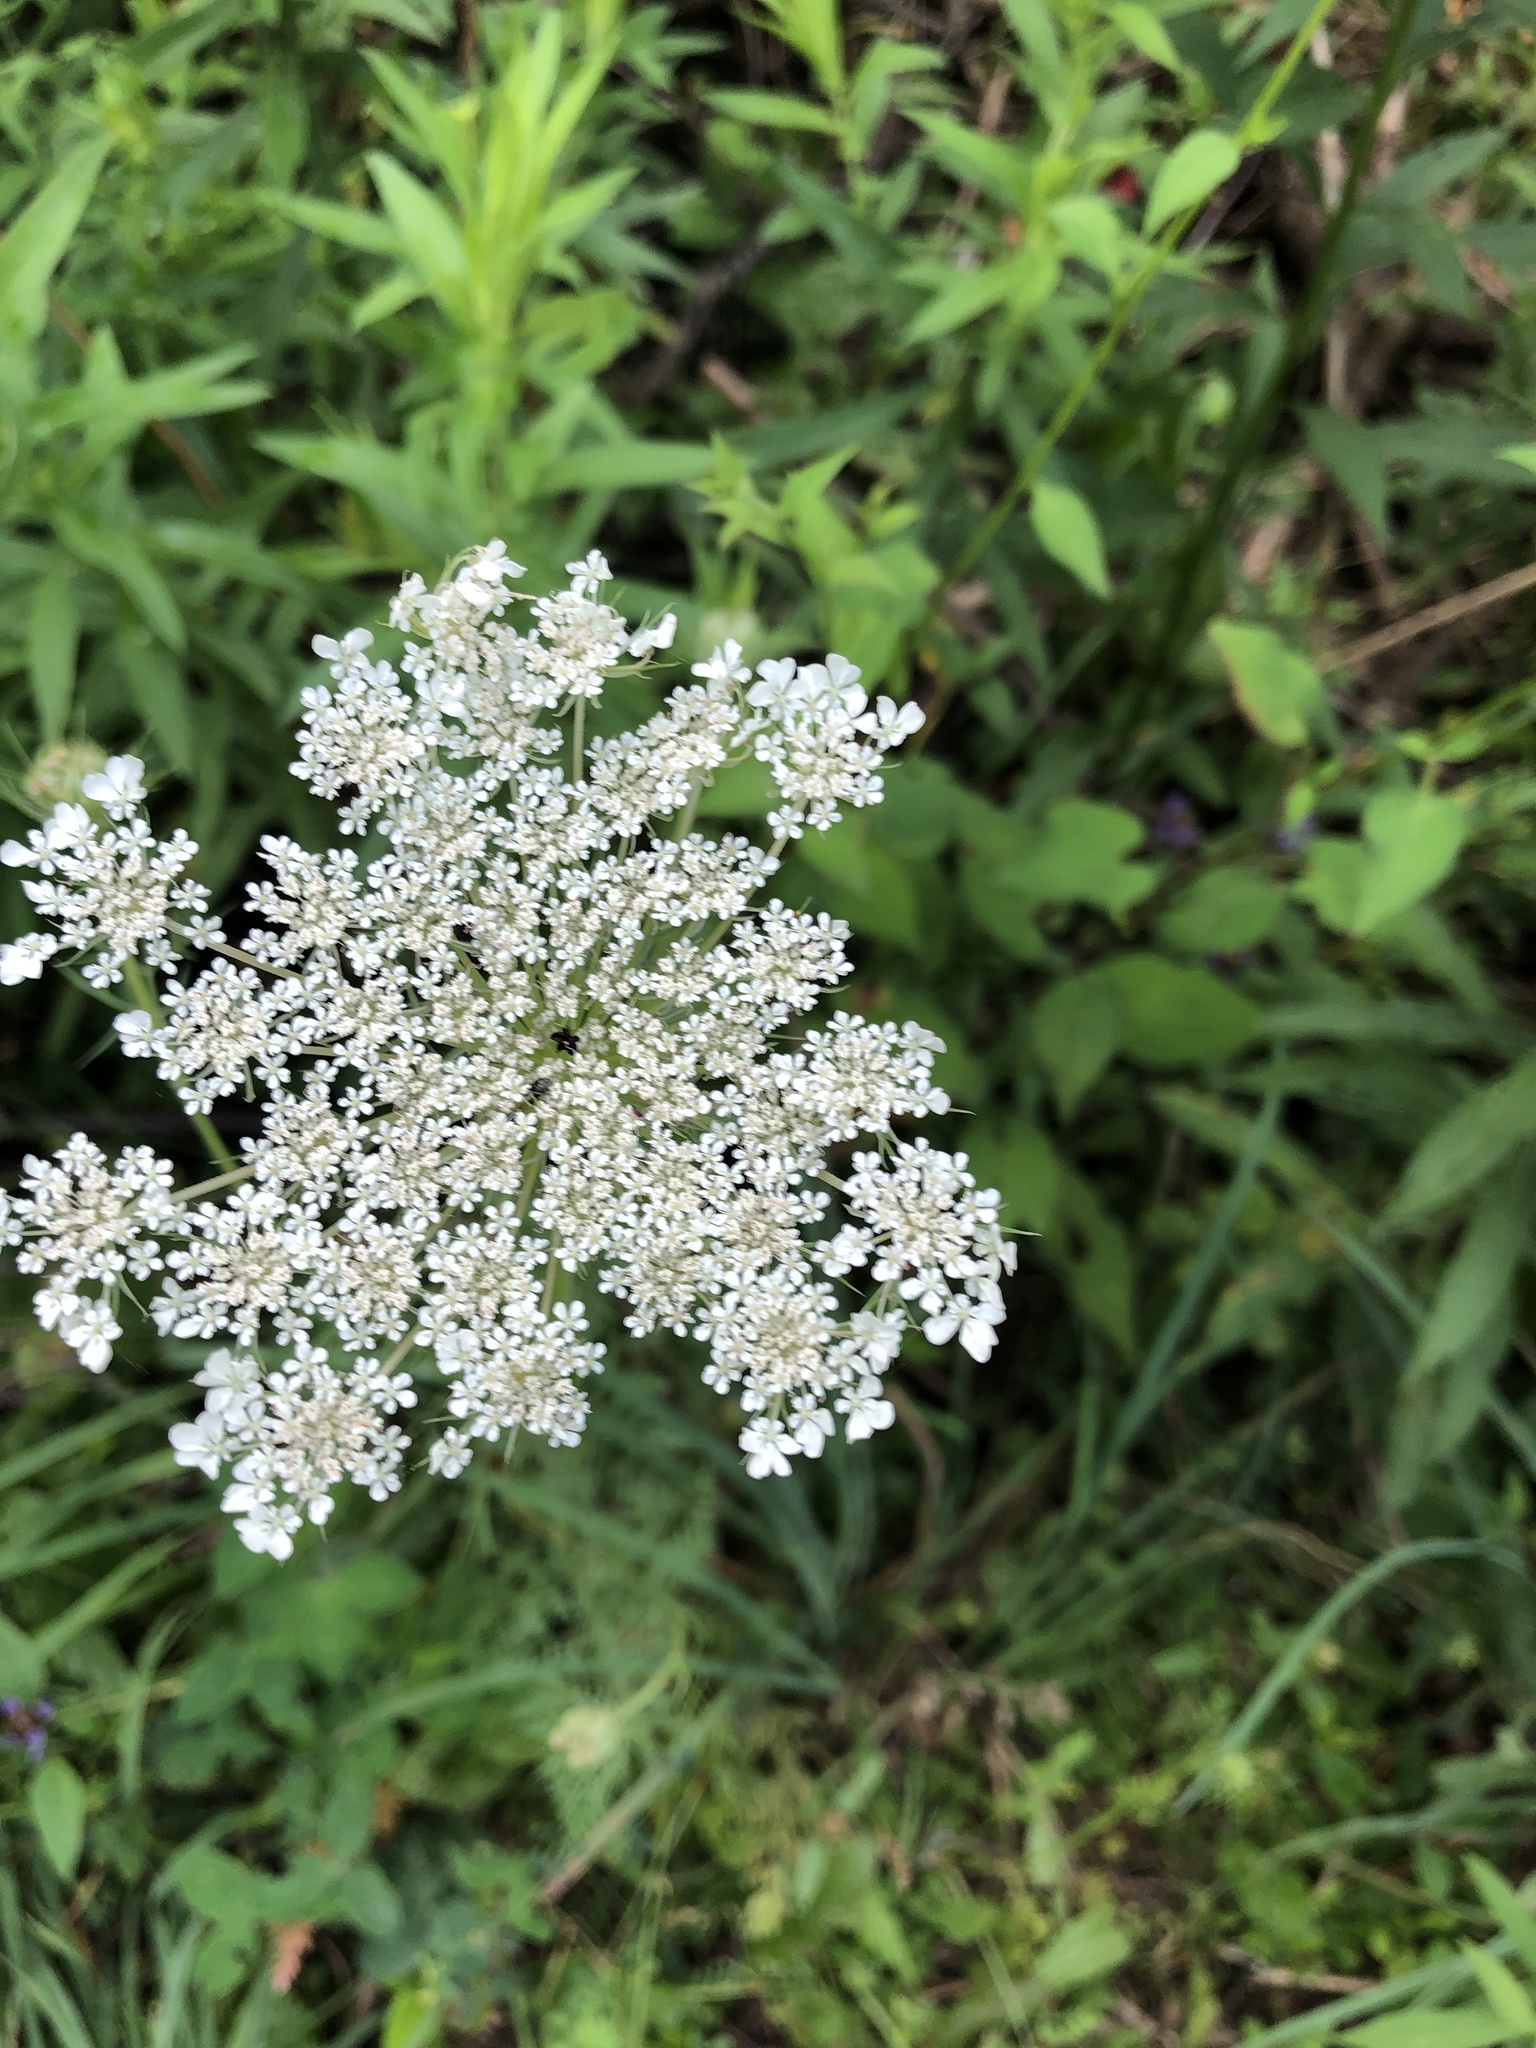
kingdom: Plantae
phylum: Tracheophyta
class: Magnoliopsida
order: Apiales
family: Apiaceae
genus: Daucus
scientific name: Daucus carota
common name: Wild carrot
